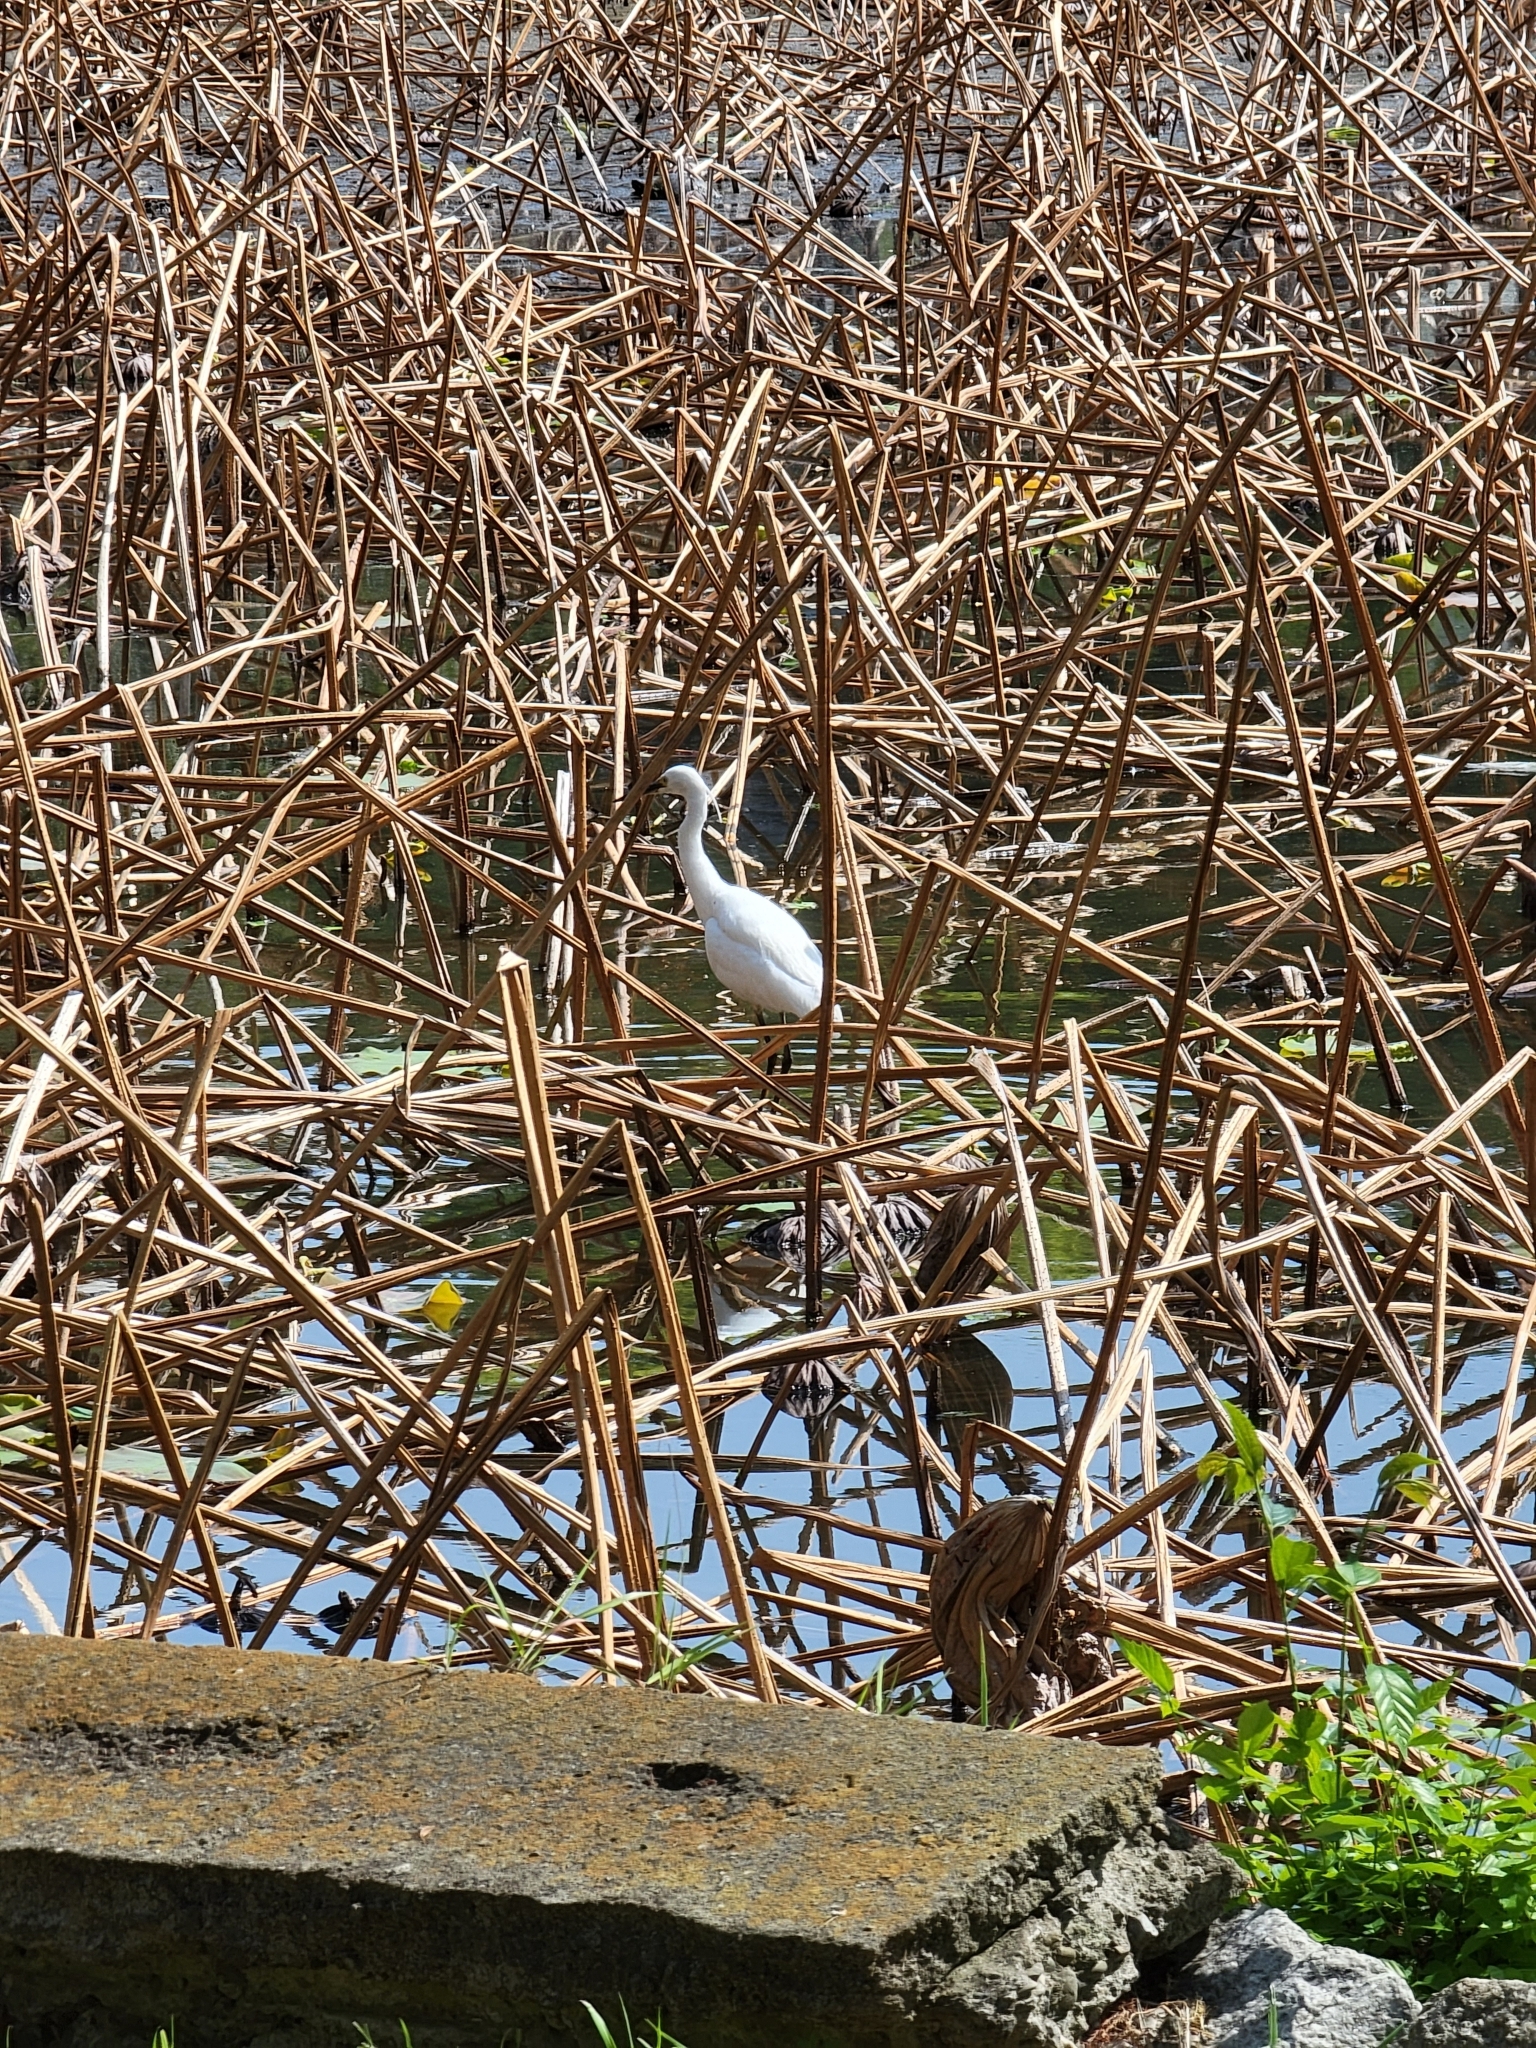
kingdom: Animalia
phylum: Chordata
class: Aves
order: Pelecaniformes
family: Ardeidae
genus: Egretta
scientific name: Egretta garzetta
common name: Little egret
